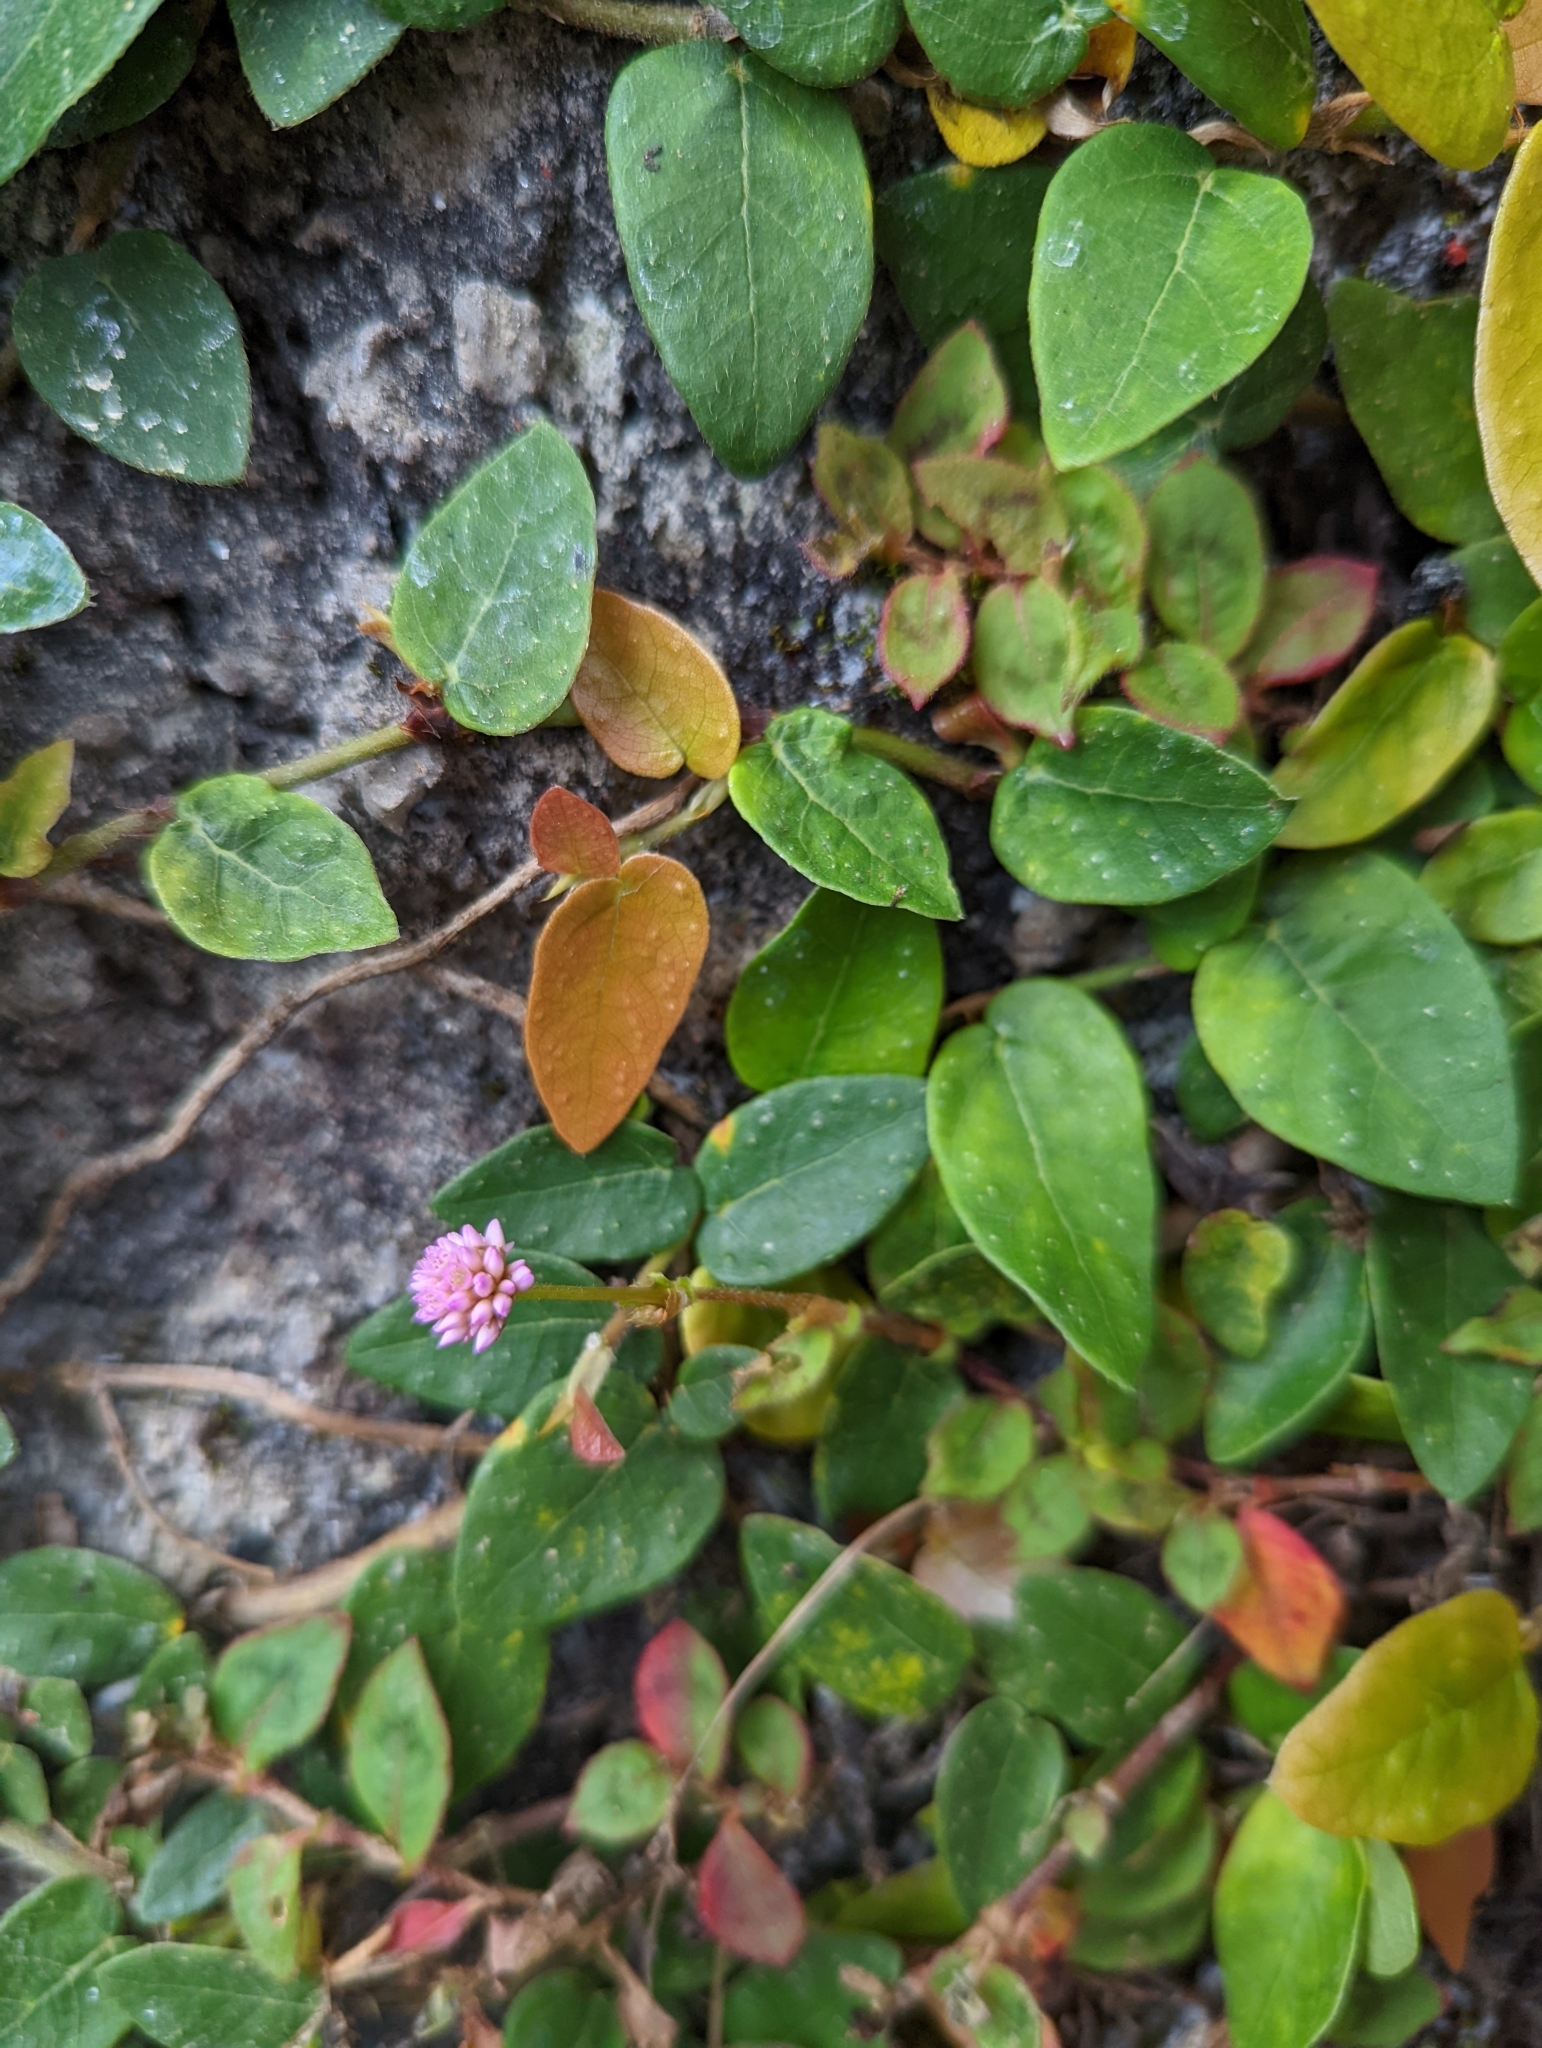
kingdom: Plantae
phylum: Tracheophyta
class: Magnoliopsida
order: Caryophyllales
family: Polygonaceae
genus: Persicaria
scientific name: Persicaria capitata
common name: Pinkhead smartweed
